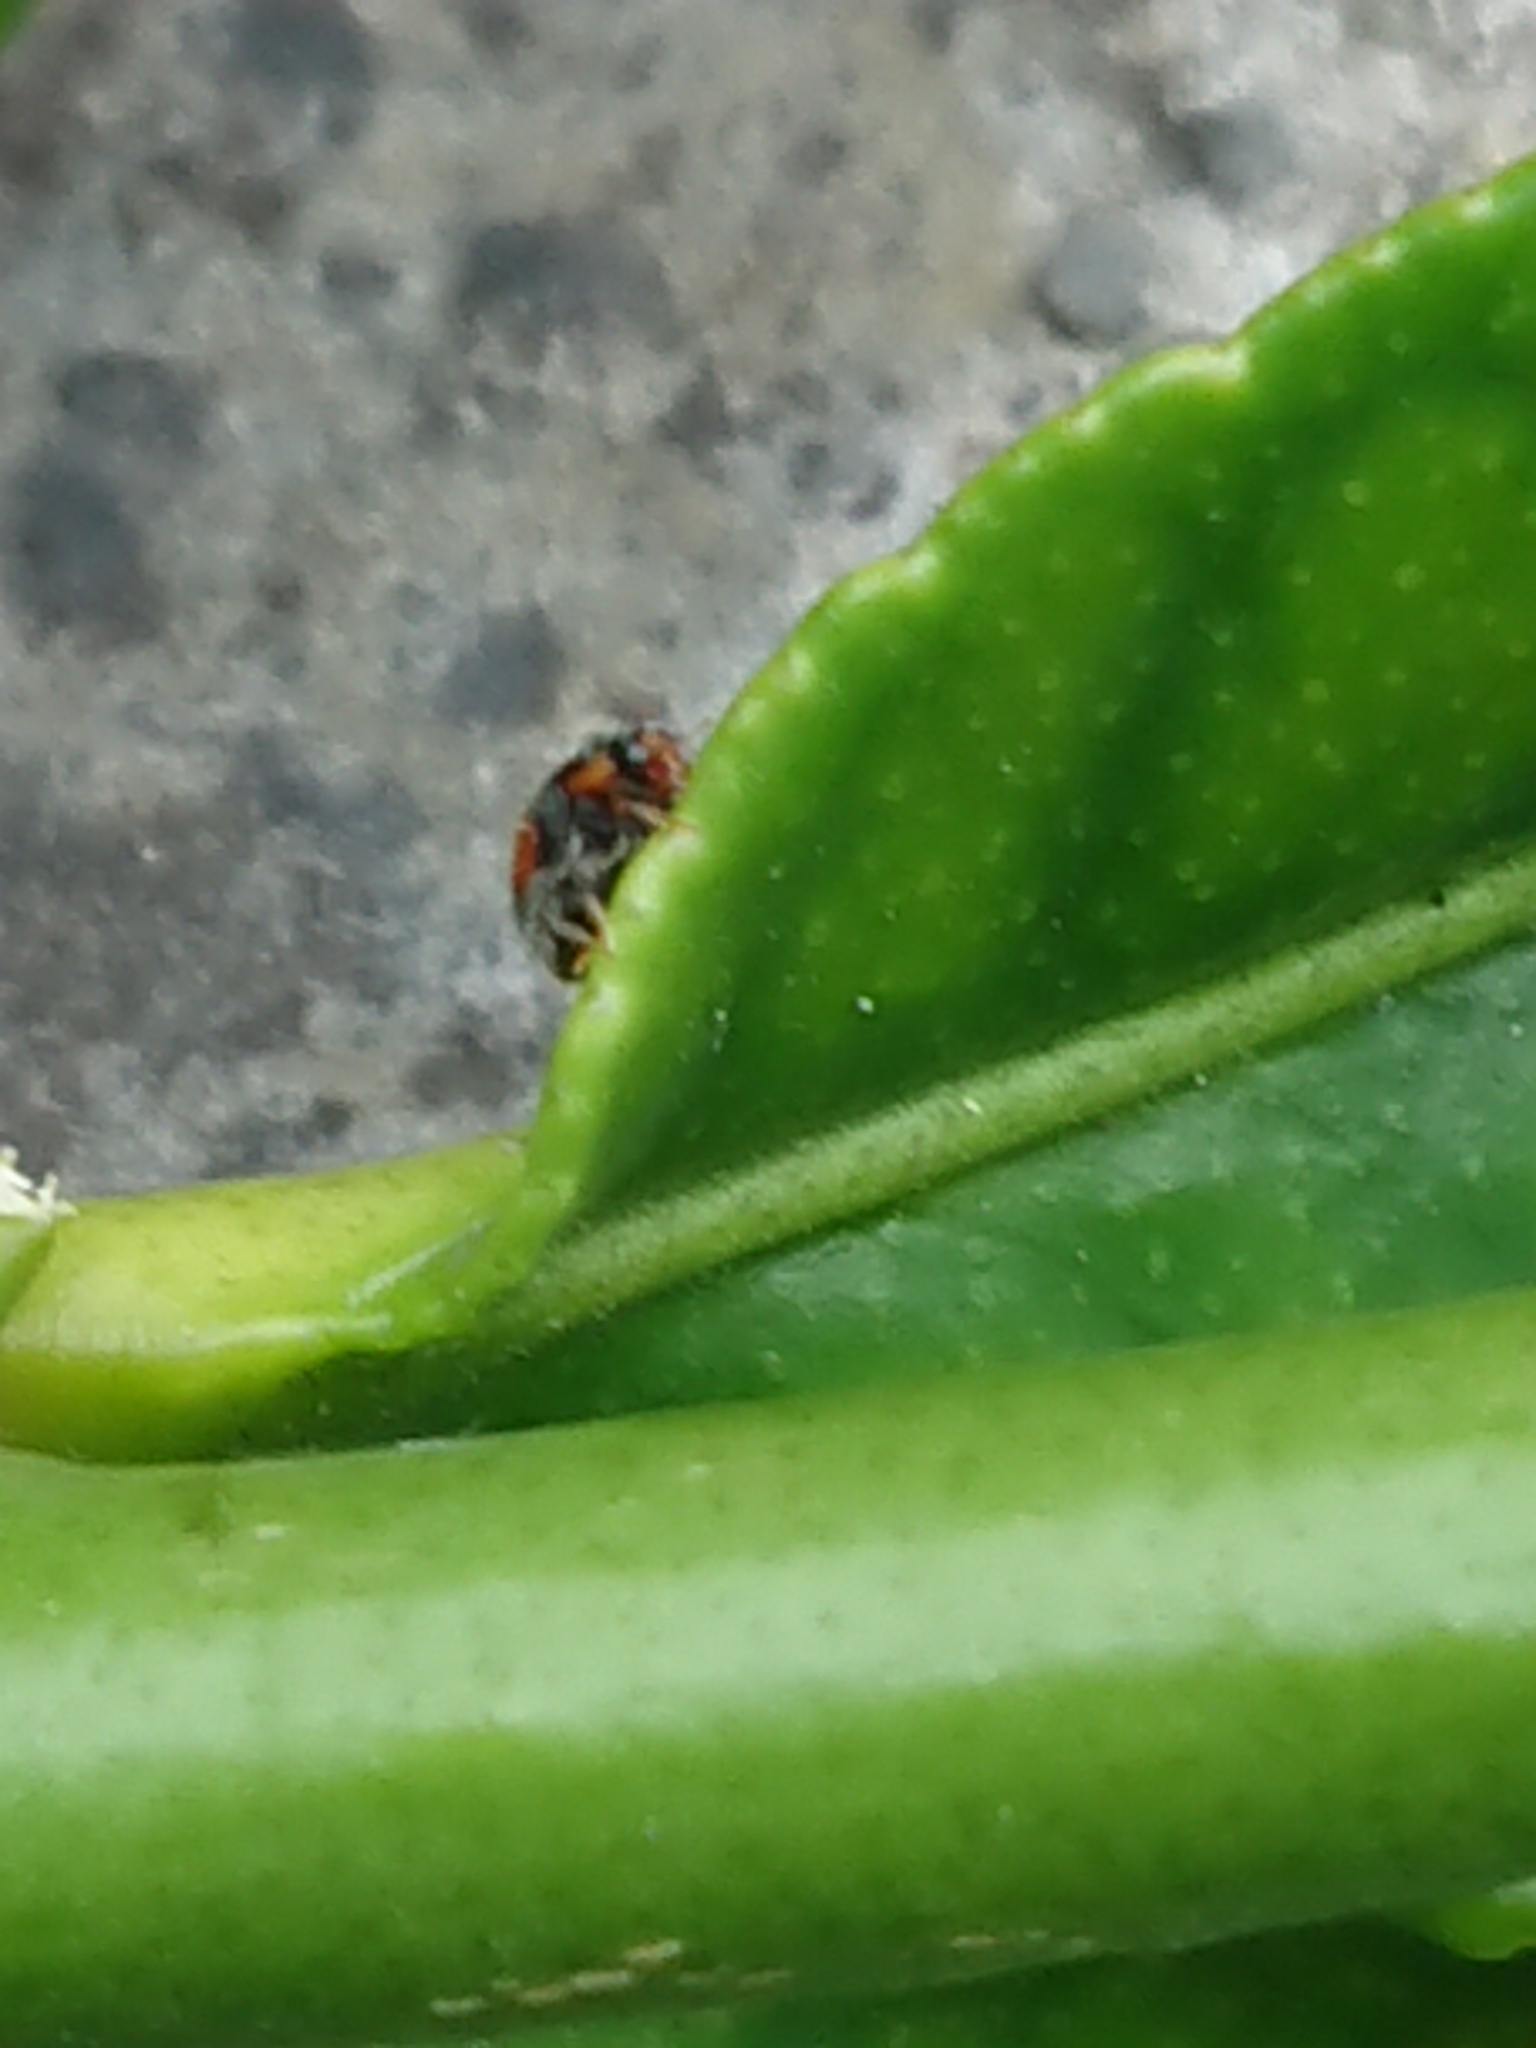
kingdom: Animalia
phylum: Arthropoda
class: Insecta
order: Coleoptera
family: Coccinellidae
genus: Scymnus
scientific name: Scymnus notescens
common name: Minute two-spotted ladybird beetle
